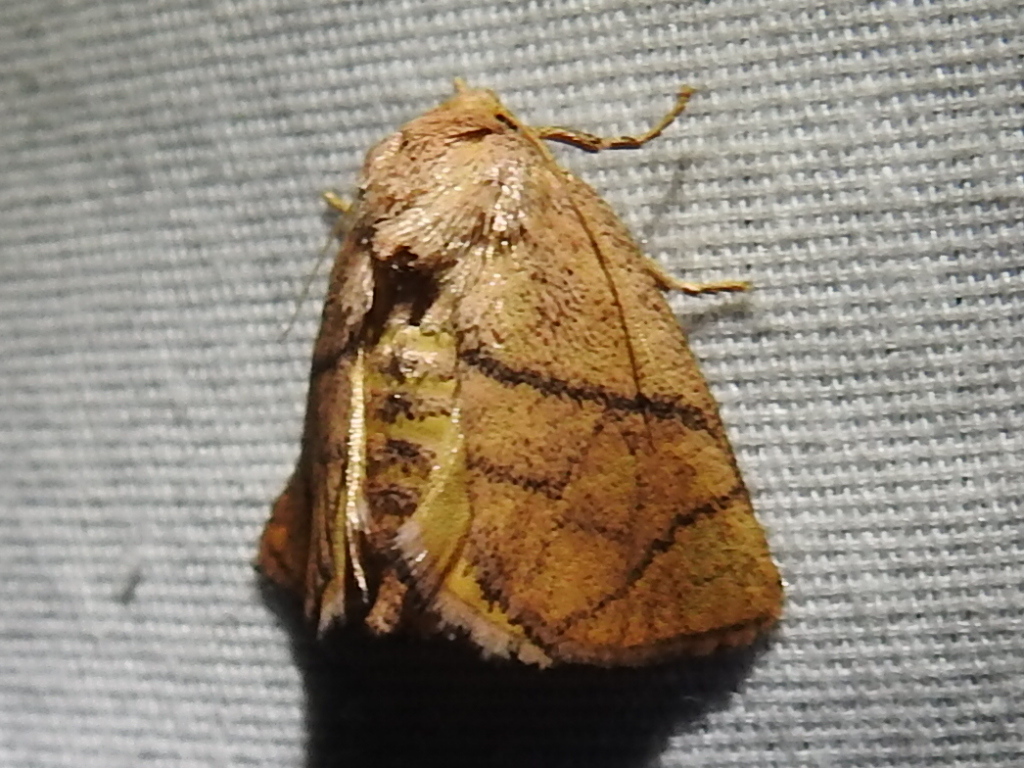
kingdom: Animalia
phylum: Arthropoda
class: Insecta
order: Lepidoptera
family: Limacodidae
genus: Apoda
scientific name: Apoda y-inversa
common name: Yellow-collared slug moth
